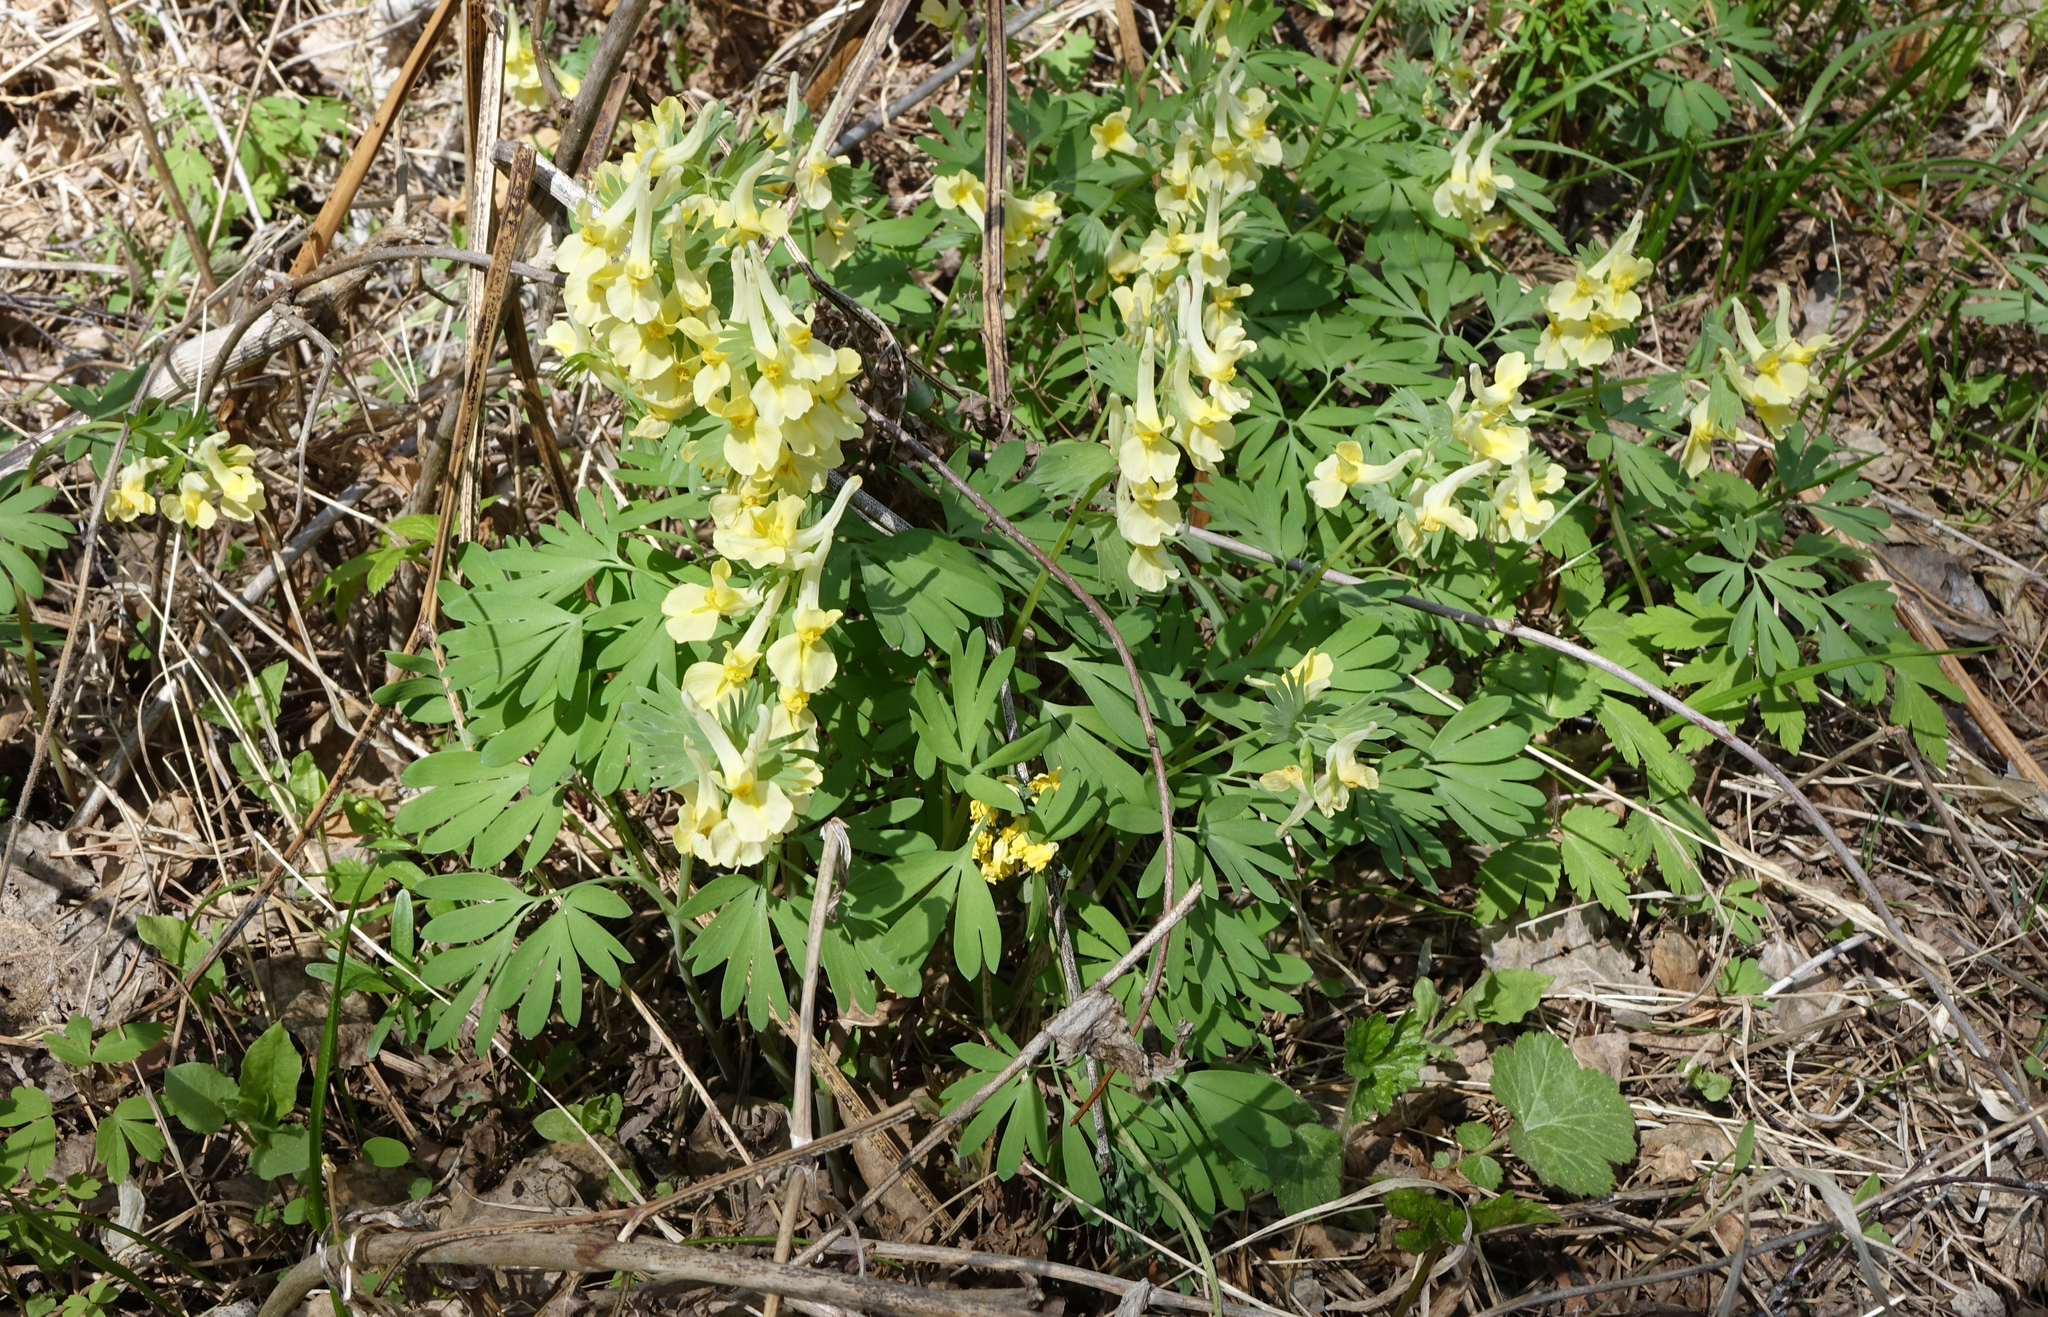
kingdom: Plantae
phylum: Tracheophyta
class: Magnoliopsida
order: Ranunculales
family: Papaveraceae
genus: Corydalis
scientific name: Corydalis bracteata
